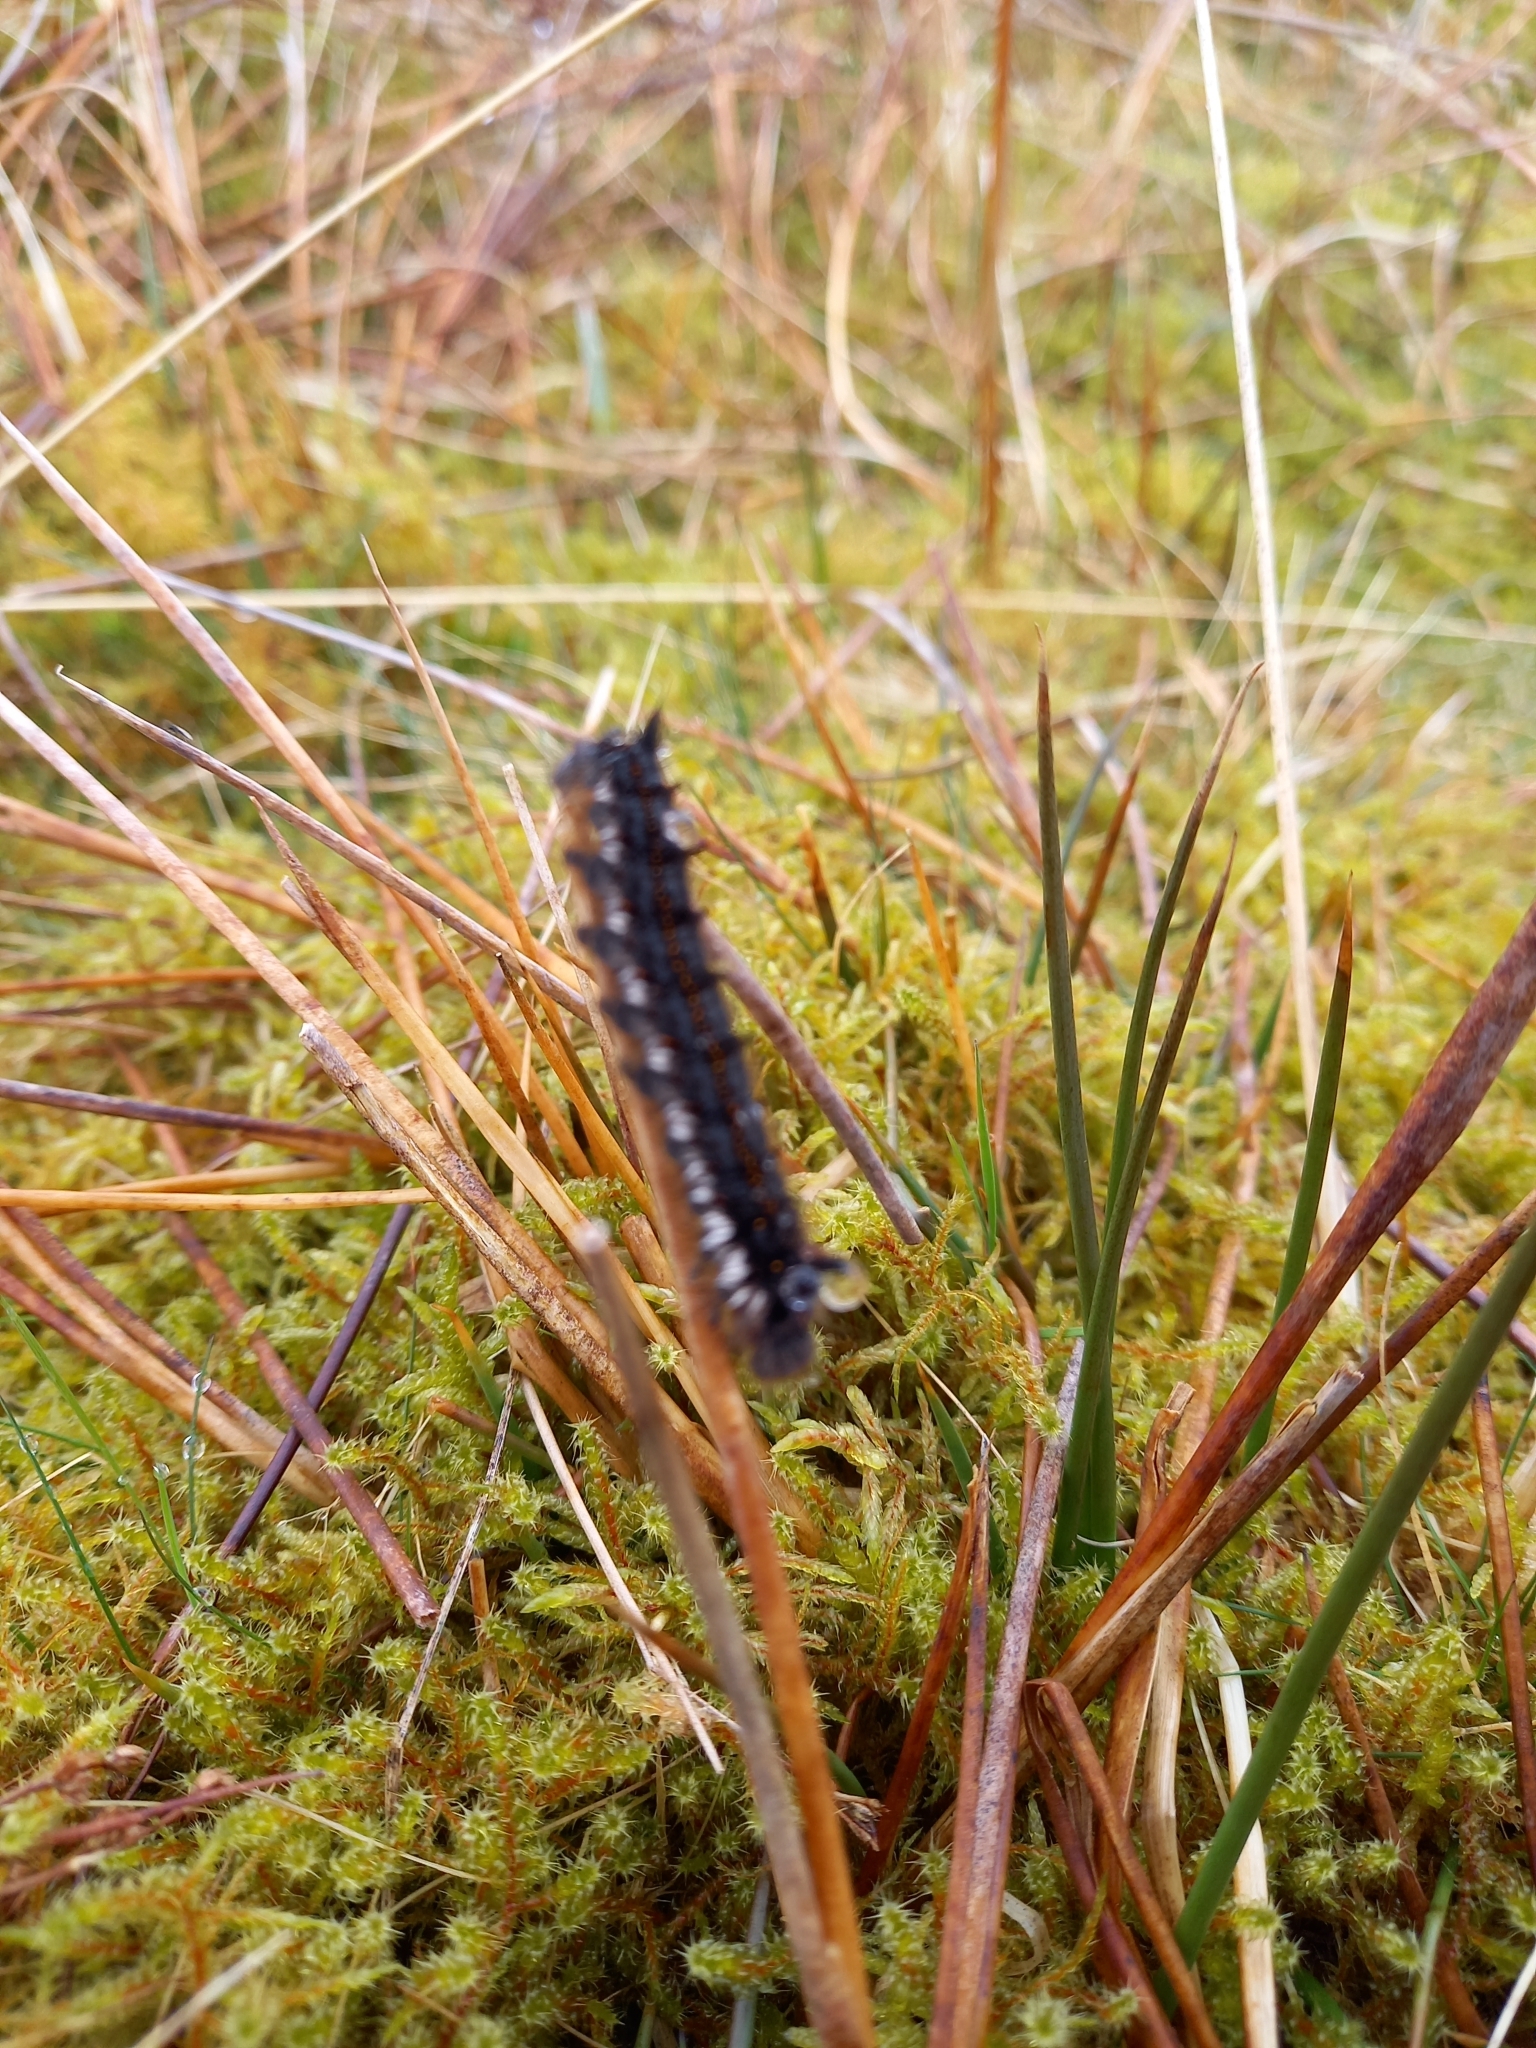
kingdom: Animalia
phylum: Arthropoda
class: Insecta
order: Lepidoptera
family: Lasiocampidae
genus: Euthrix
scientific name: Euthrix potatoria
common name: Drinker
